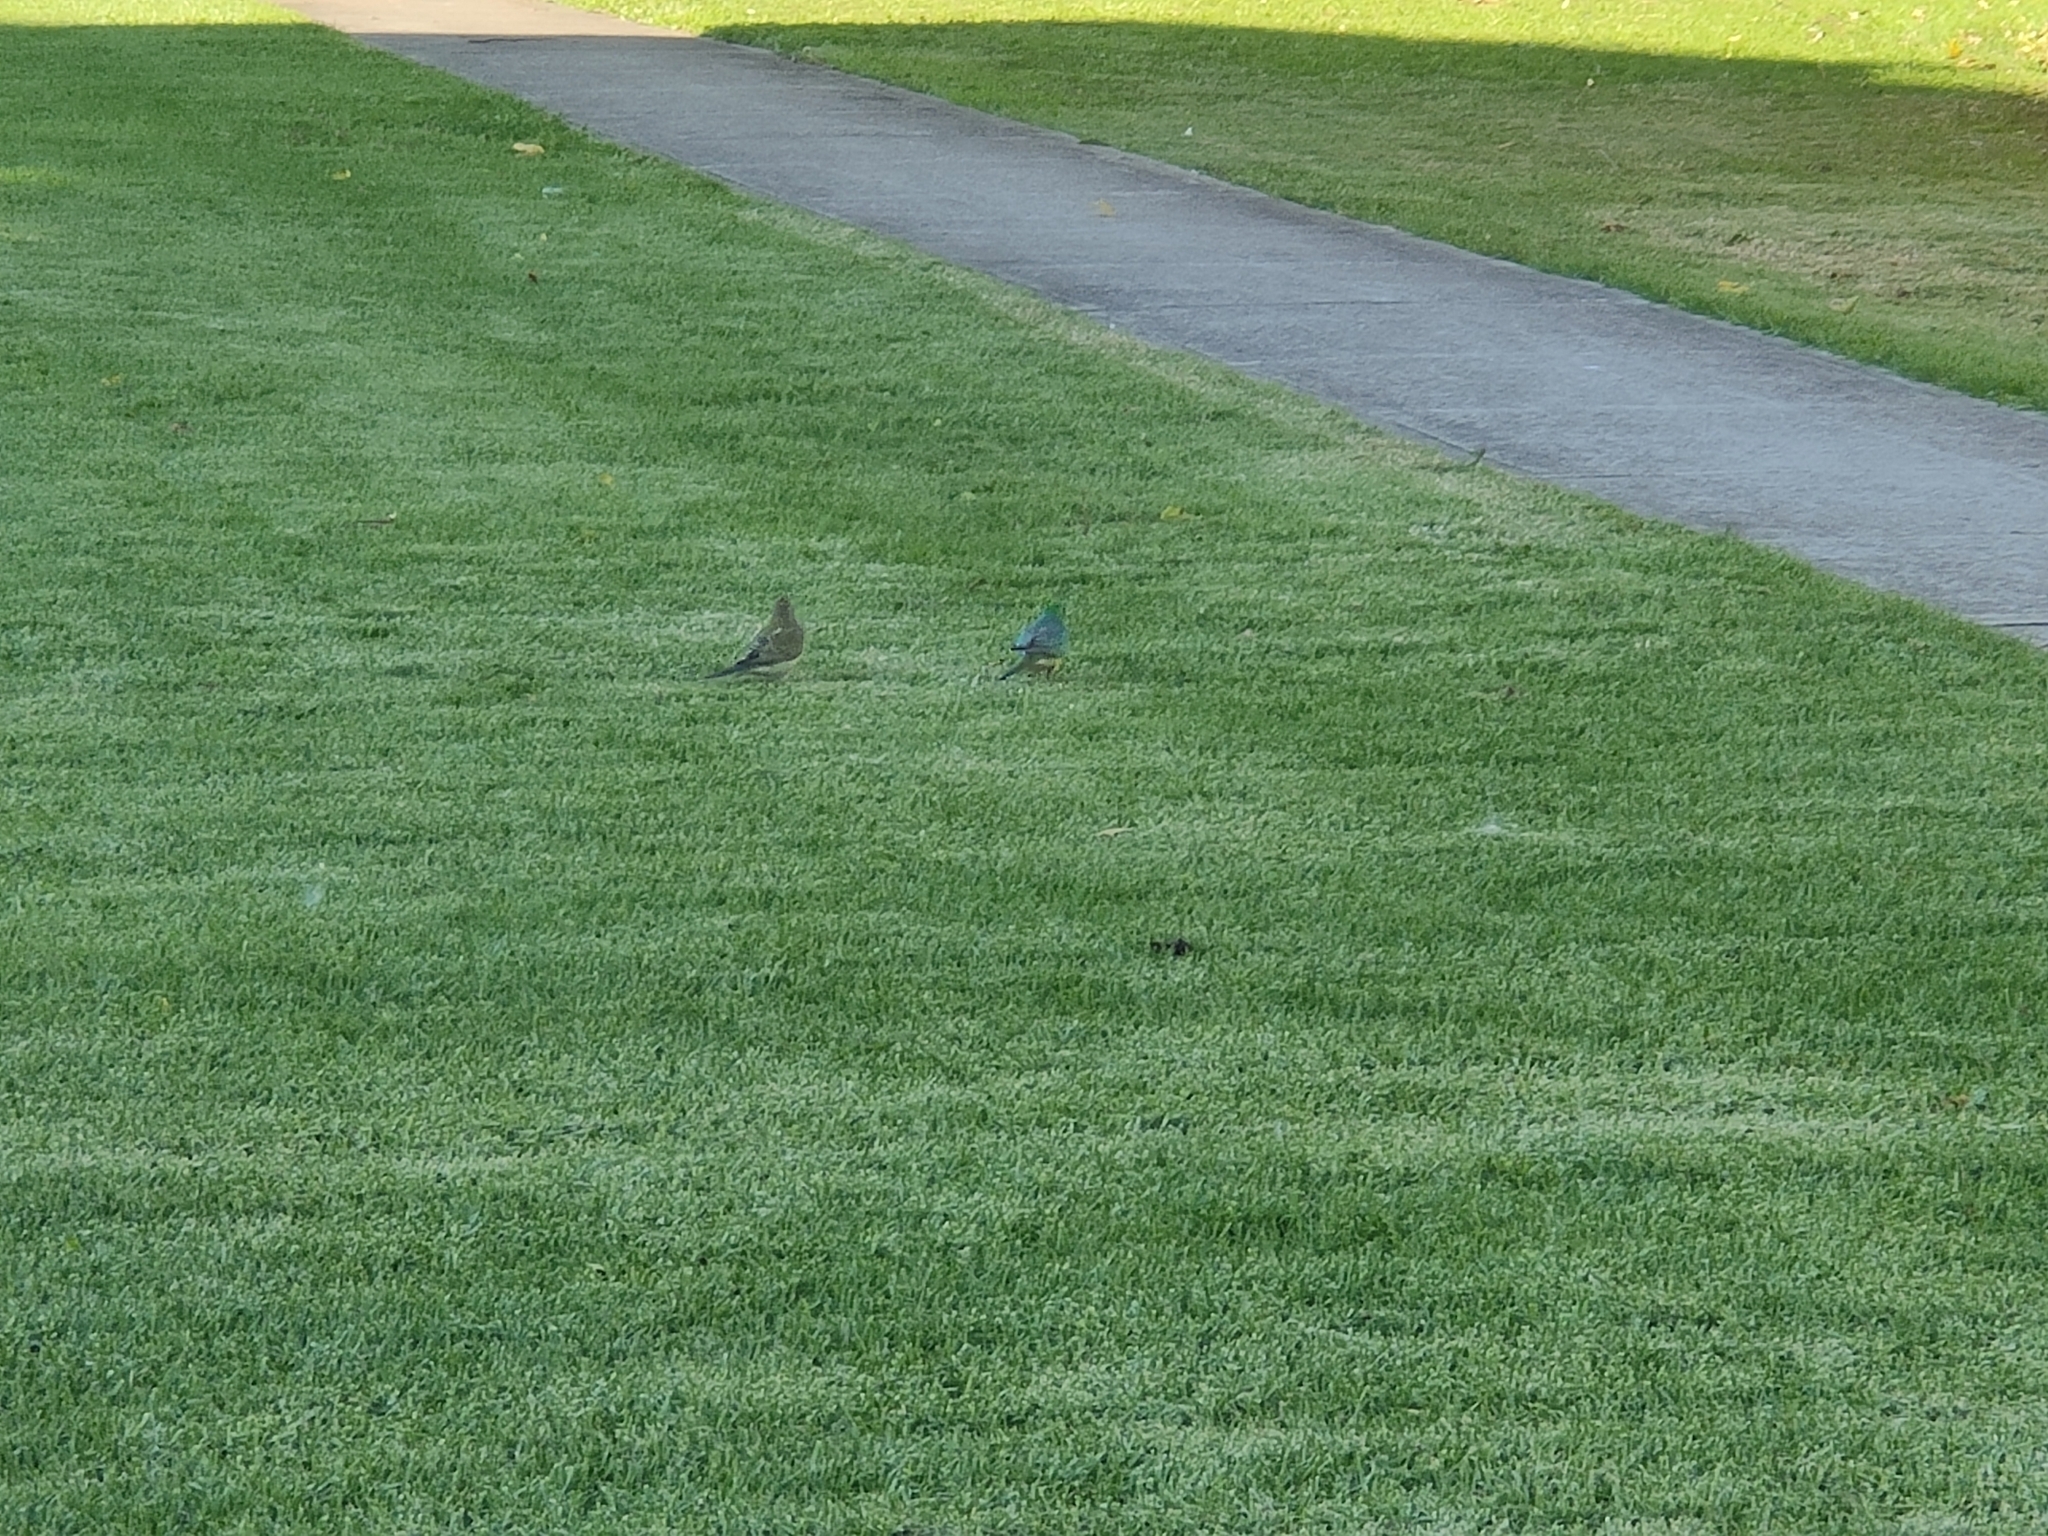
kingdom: Animalia
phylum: Chordata
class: Aves
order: Psittaciformes
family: Psittacidae
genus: Psephotus
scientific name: Psephotus haematonotus
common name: Red-rumped parrot
